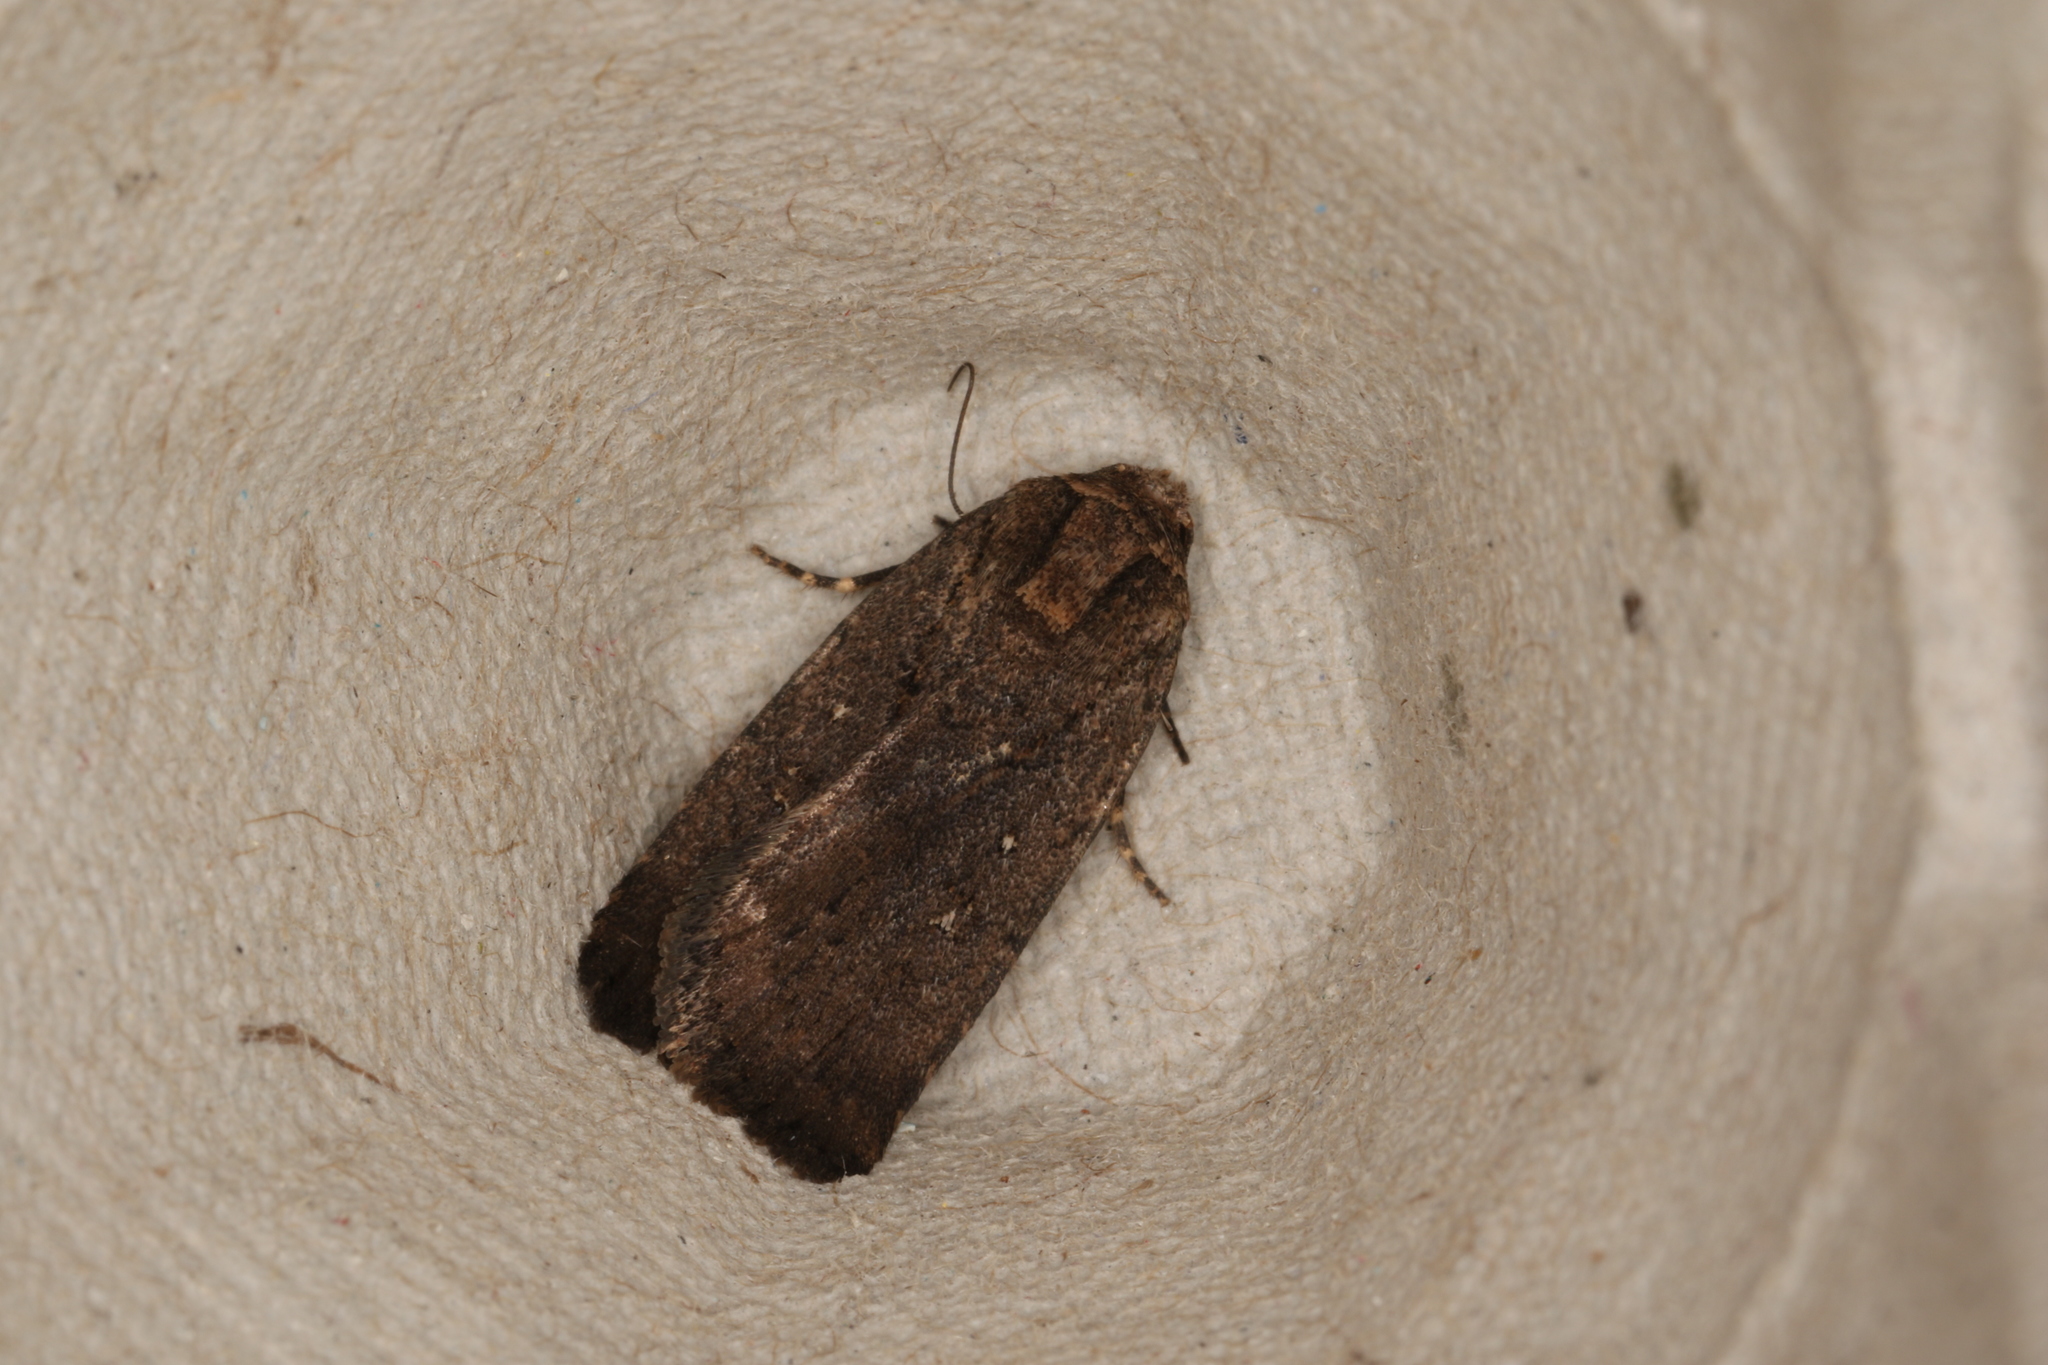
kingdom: Animalia
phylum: Arthropoda
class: Insecta
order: Lepidoptera
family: Noctuidae
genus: Thoracolopha
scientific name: Thoracolopha nycteris
